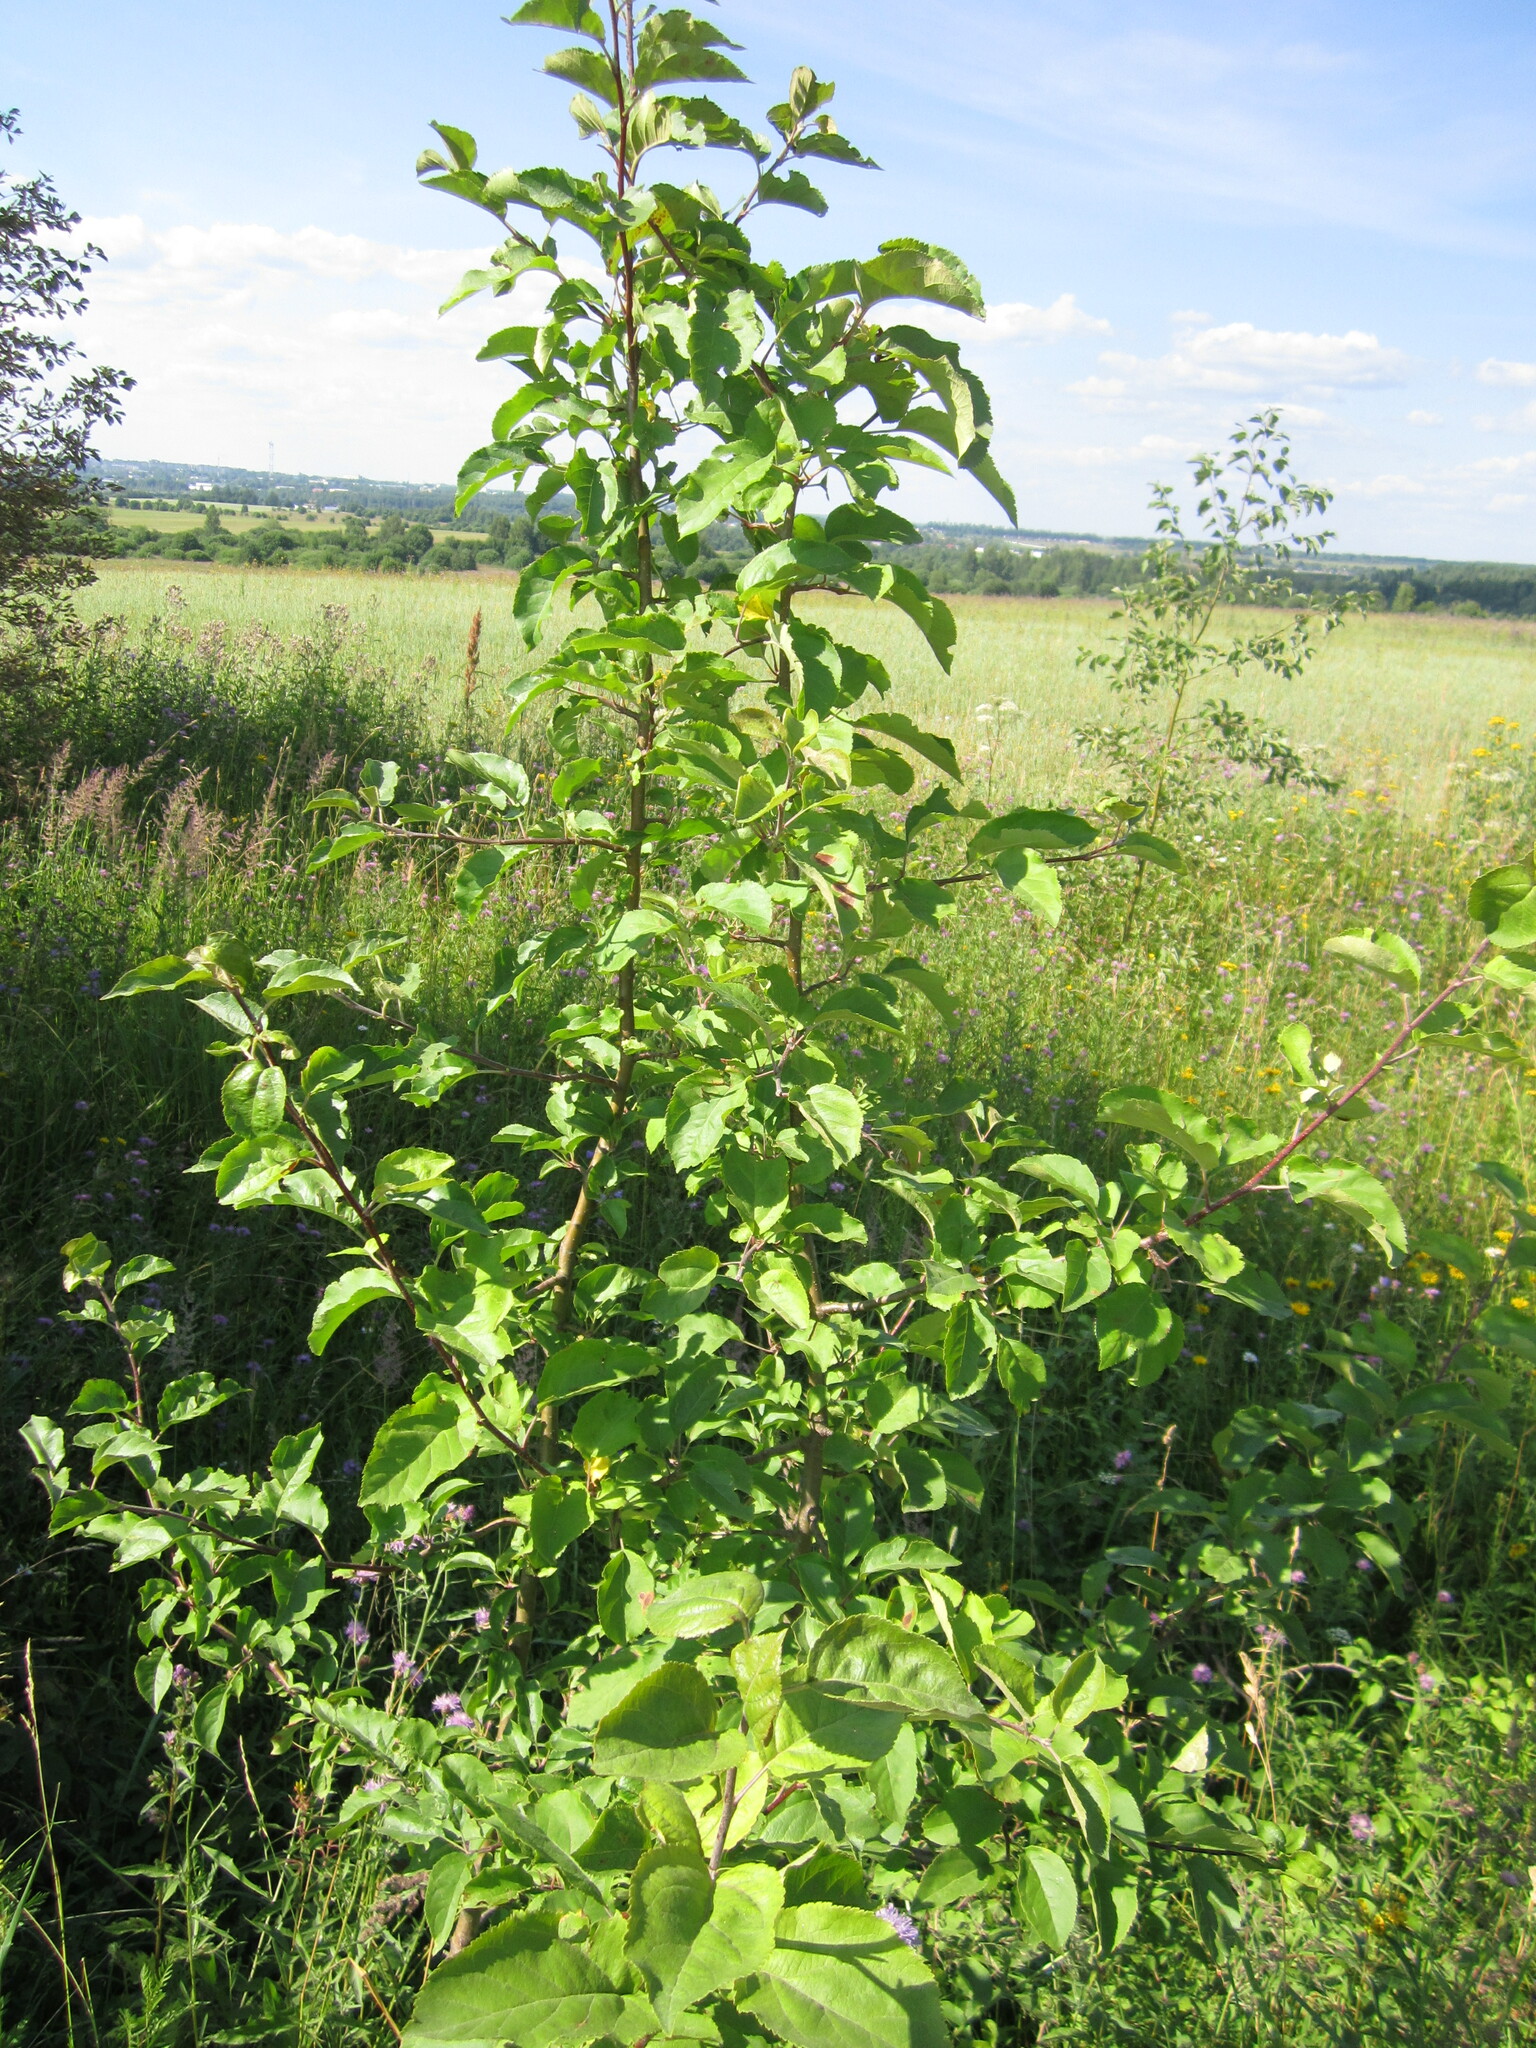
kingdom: Plantae
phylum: Tracheophyta
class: Magnoliopsida
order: Rosales
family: Rosaceae
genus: Malus
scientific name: Malus domestica
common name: Apple
